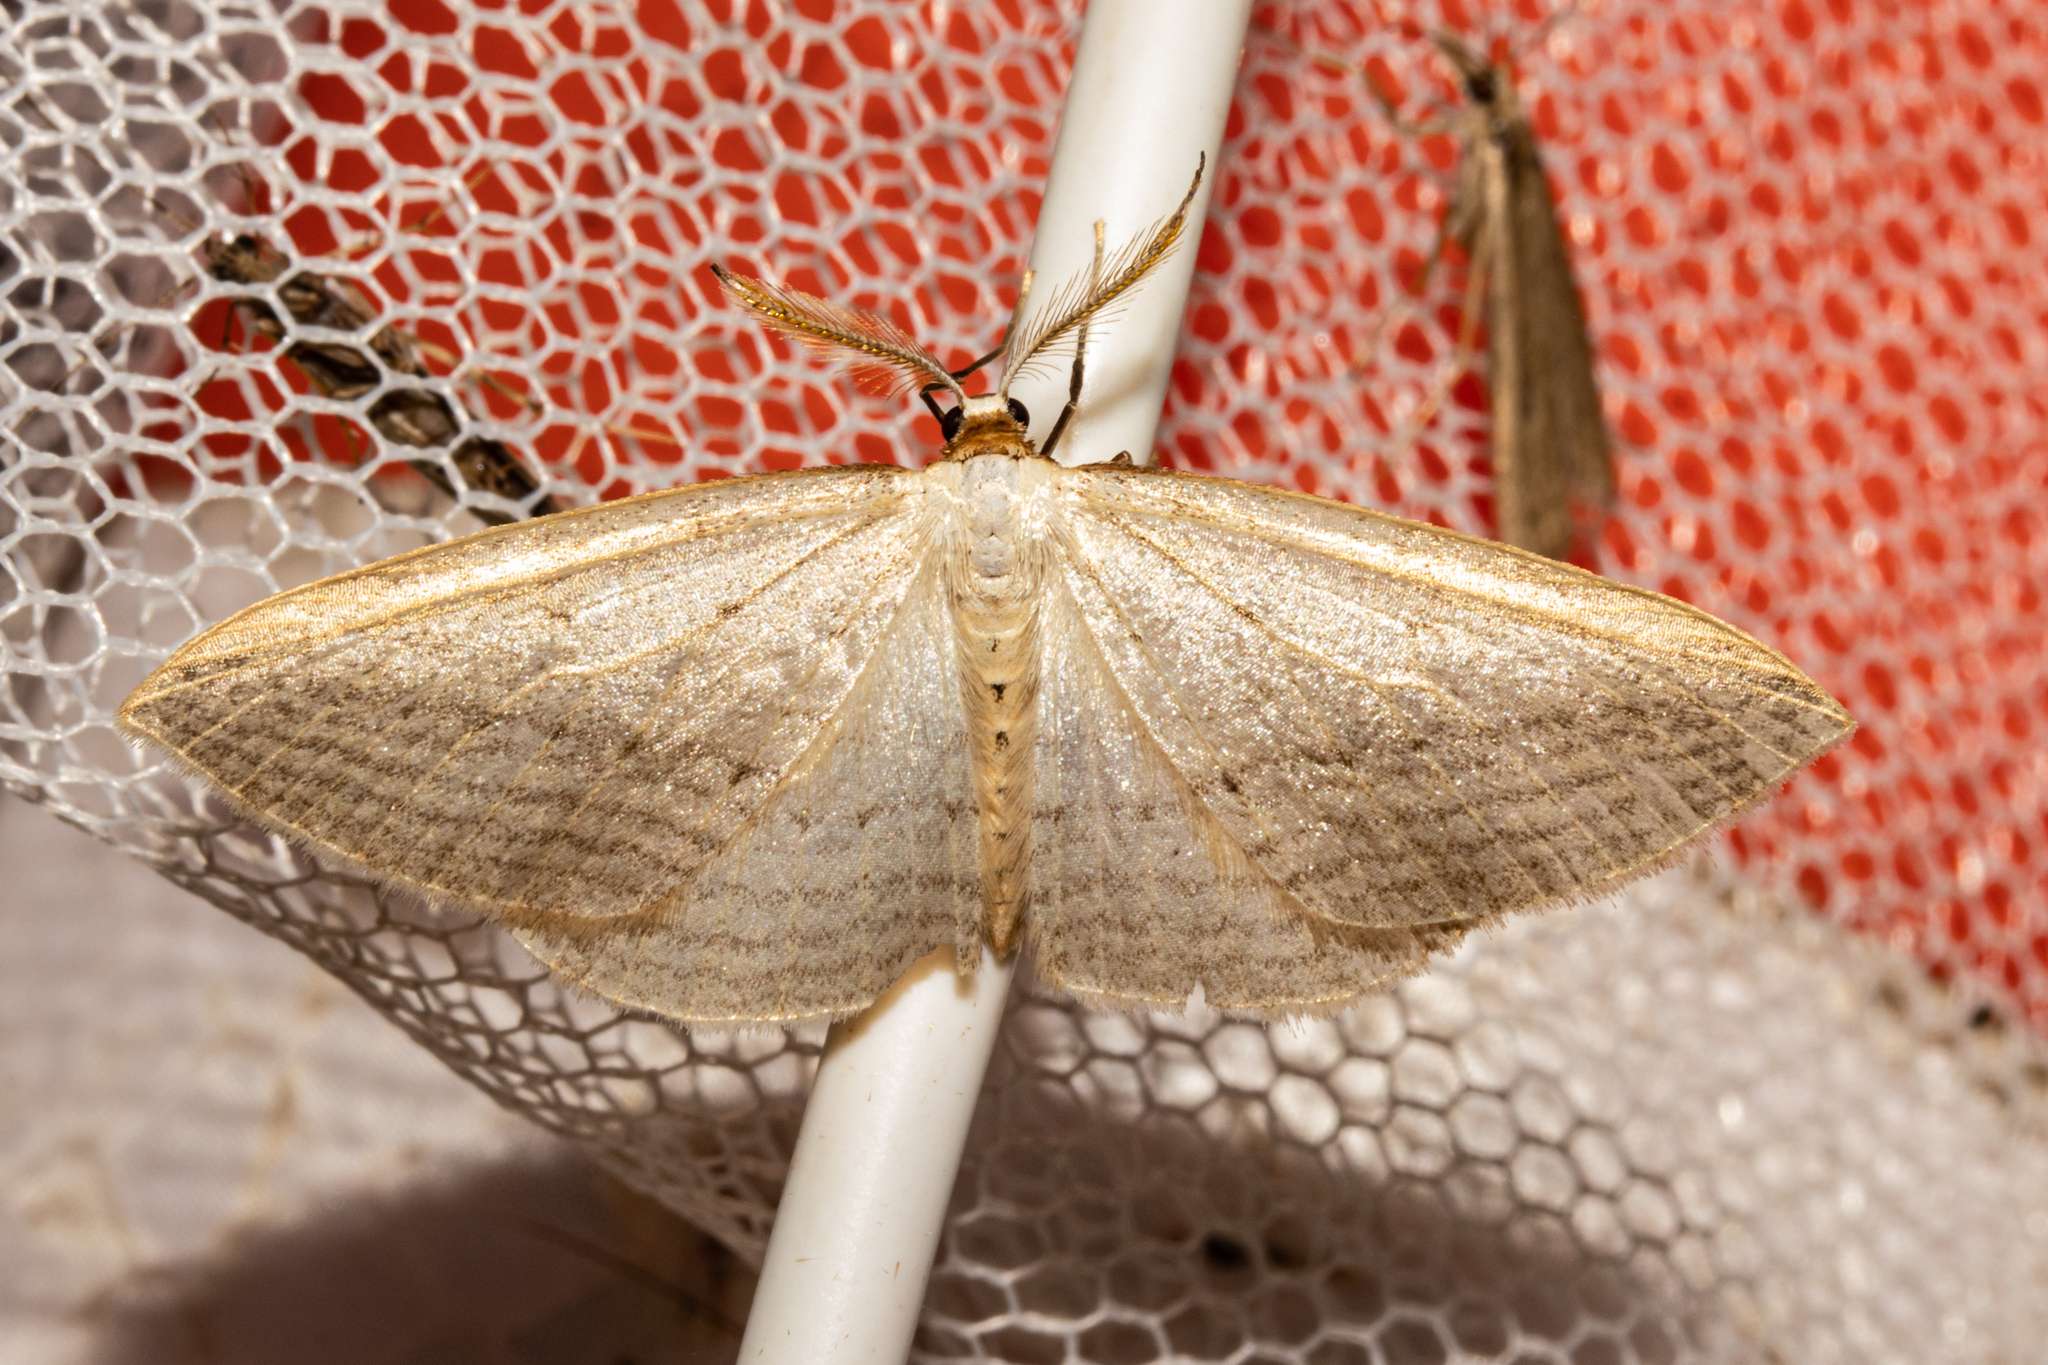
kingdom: Animalia
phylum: Arthropoda
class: Insecta
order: Lepidoptera
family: Geometridae
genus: Orthoclydon
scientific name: Orthoclydon praefectata
